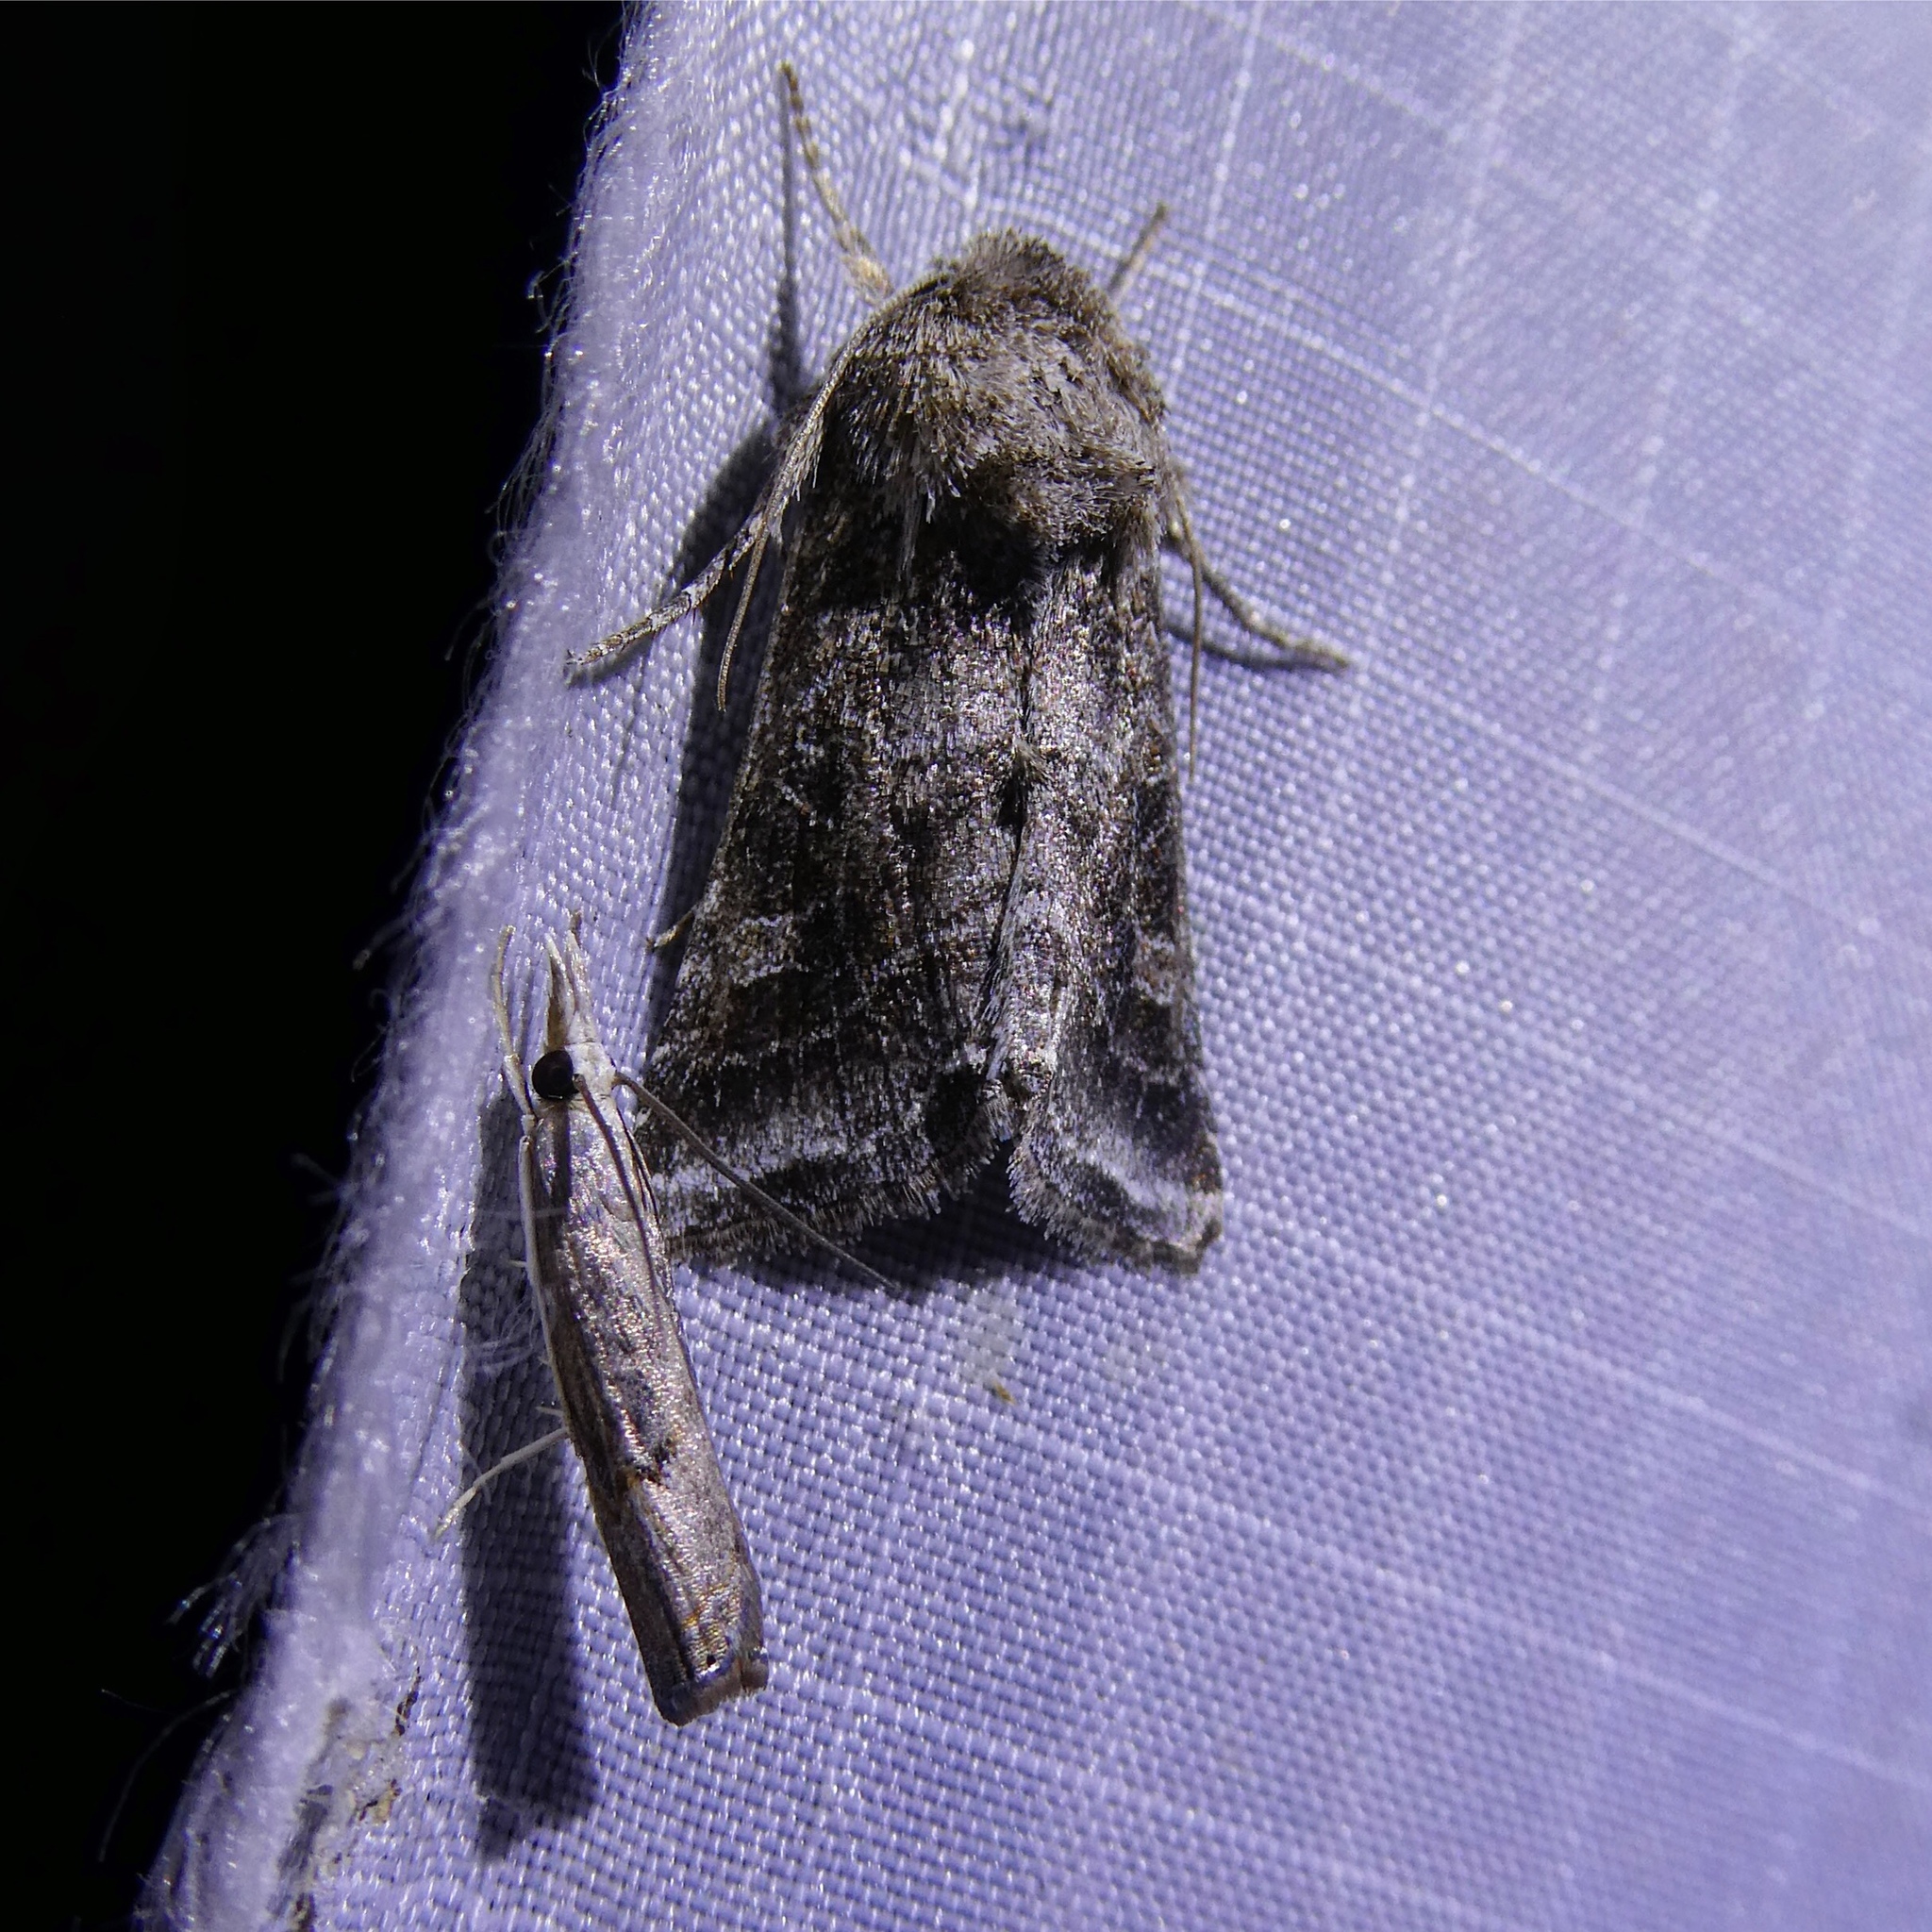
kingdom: Animalia
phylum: Arthropoda
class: Insecta
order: Lepidoptera
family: Noctuidae
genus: Lacinipolia
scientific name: Lacinipolia erecta
